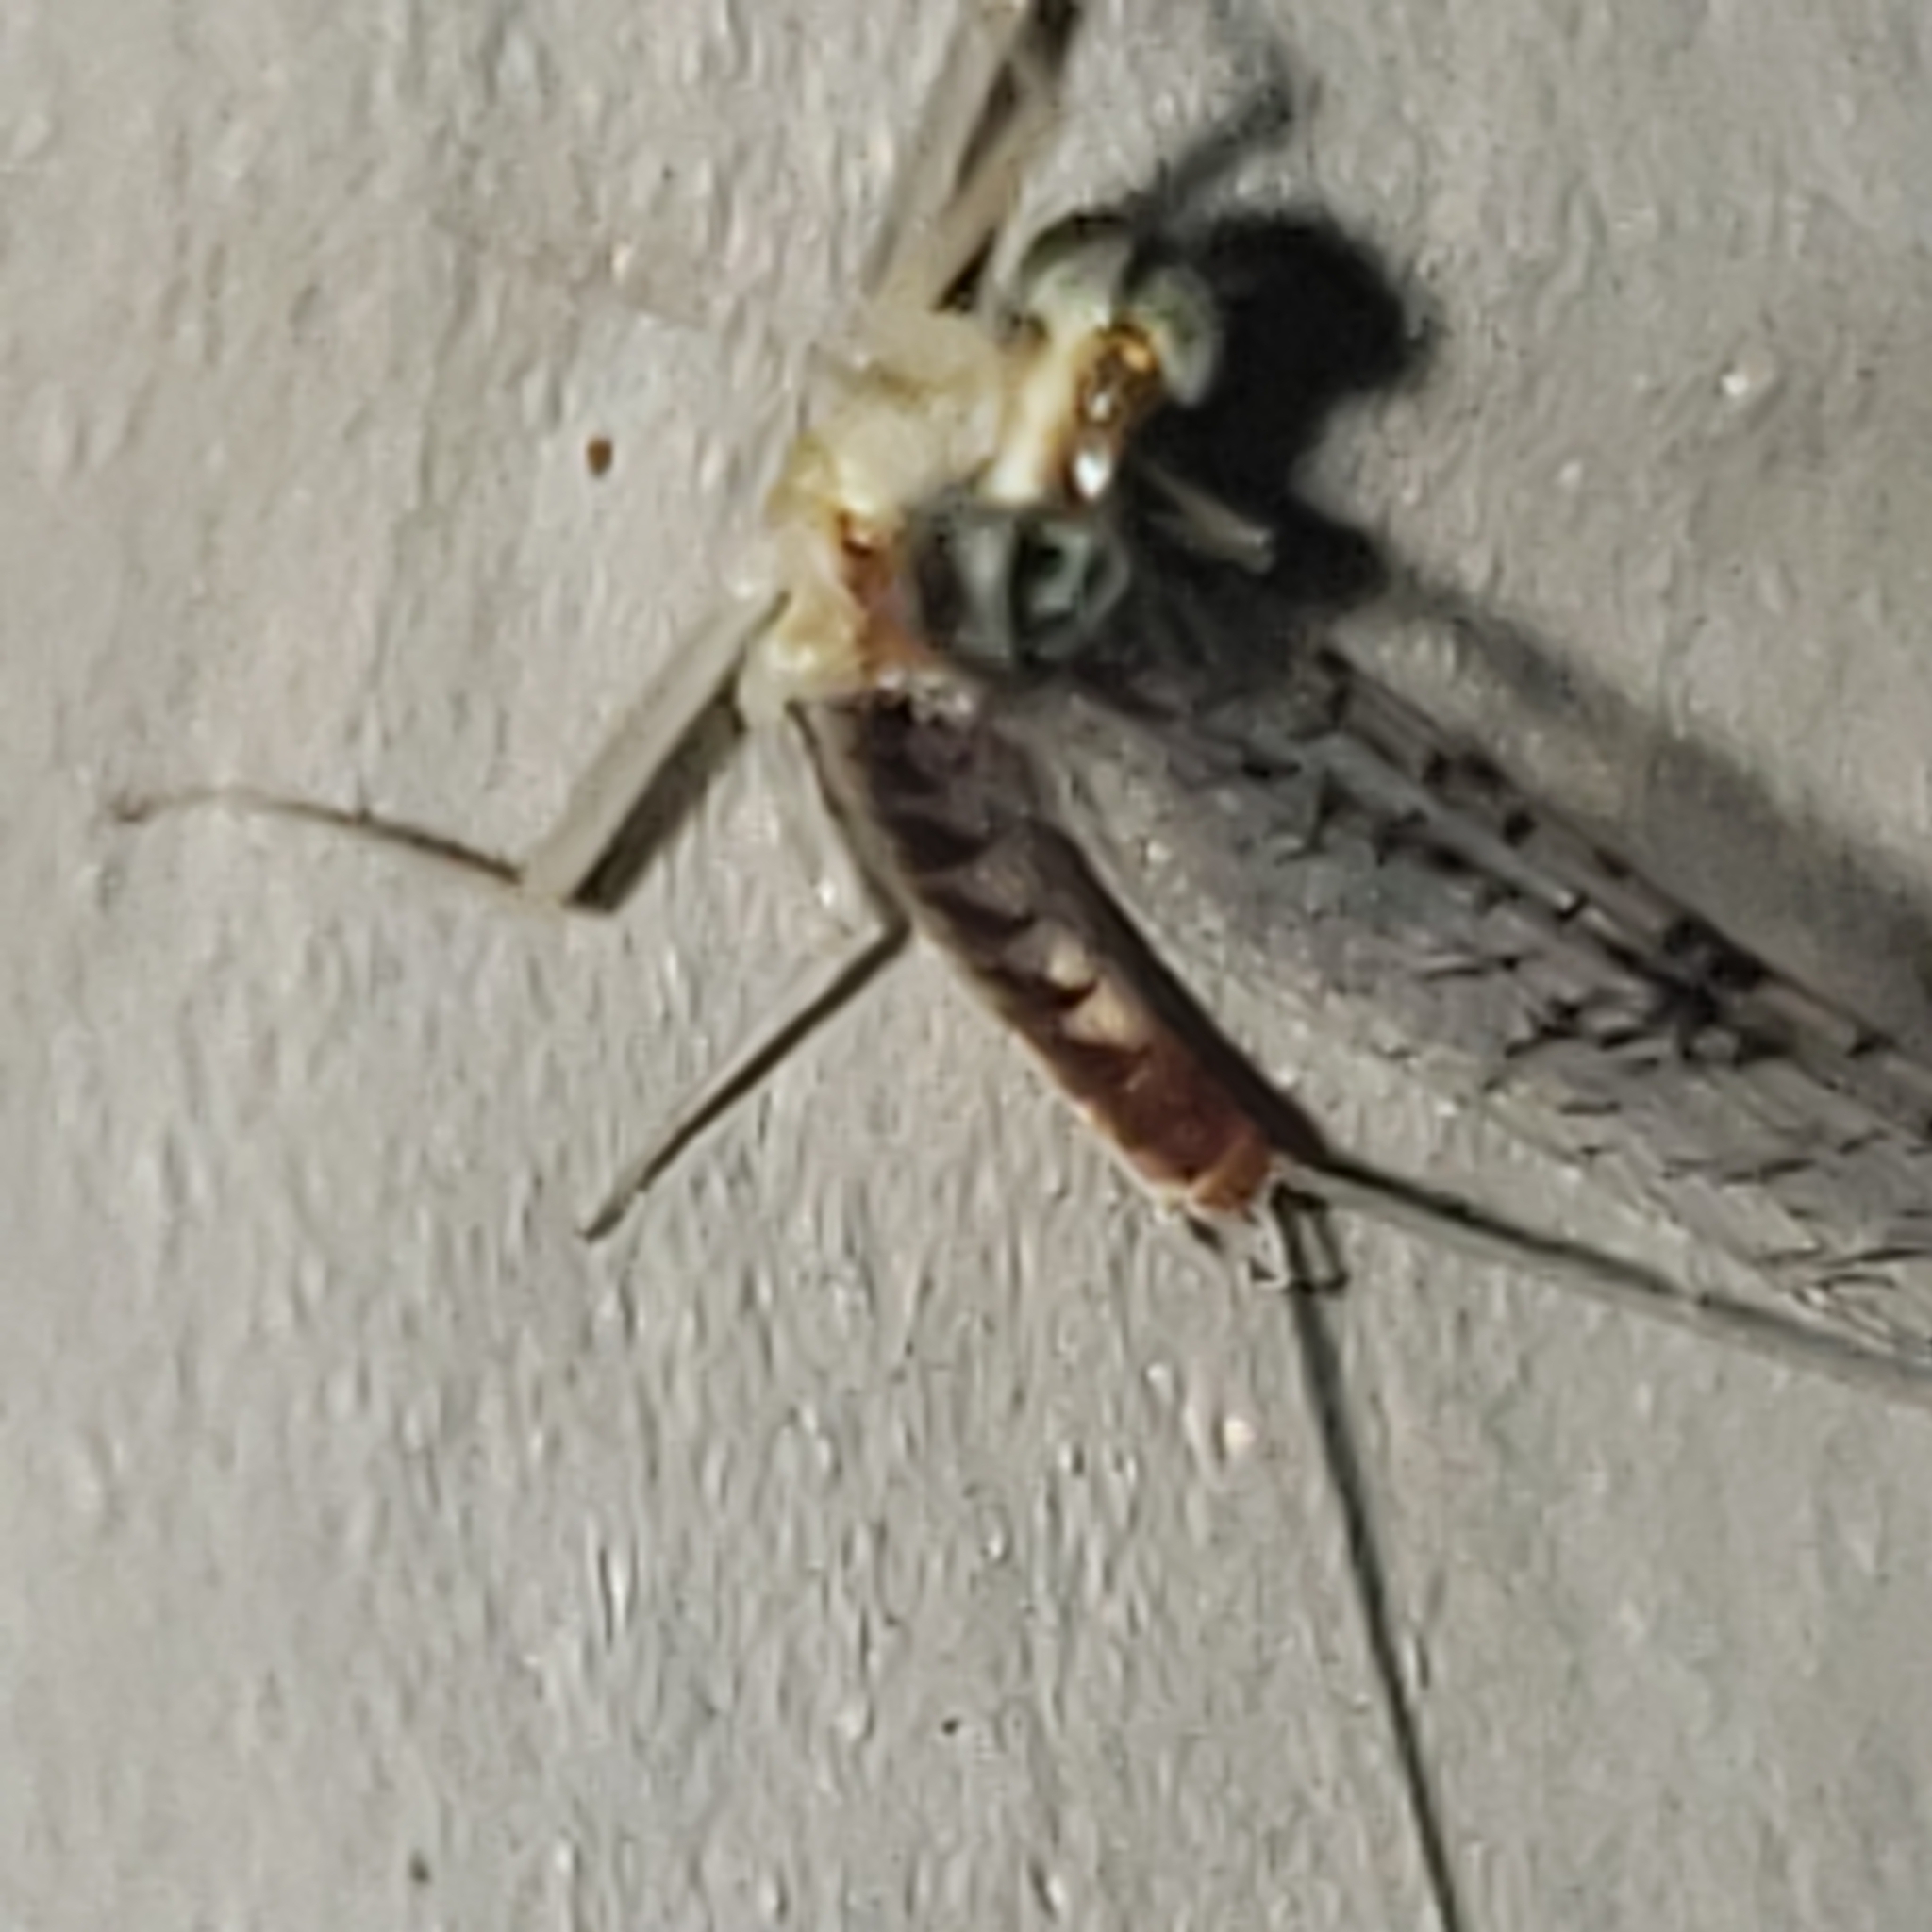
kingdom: Animalia
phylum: Arthropoda
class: Insecta
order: Ephemeroptera
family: Heptageniidae
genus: Leucrocuta
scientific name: Leucrocuta umbratica
